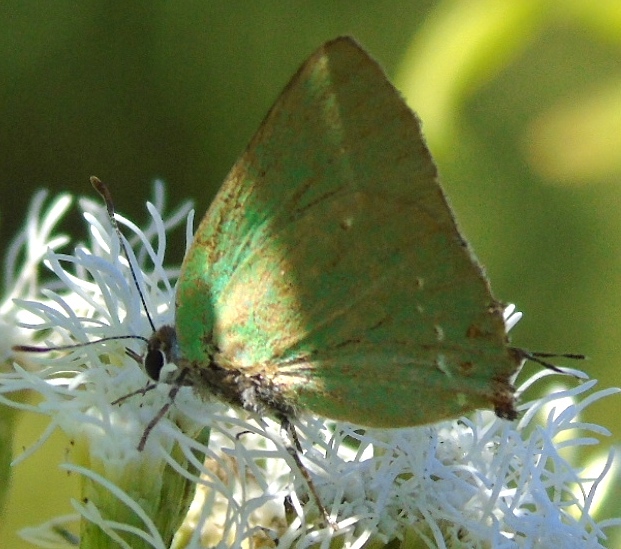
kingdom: Animalia
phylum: Arthropoda
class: Insecta
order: Lepidoptera
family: Lycaenidae
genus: Thecla
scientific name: Thecla herodotus
